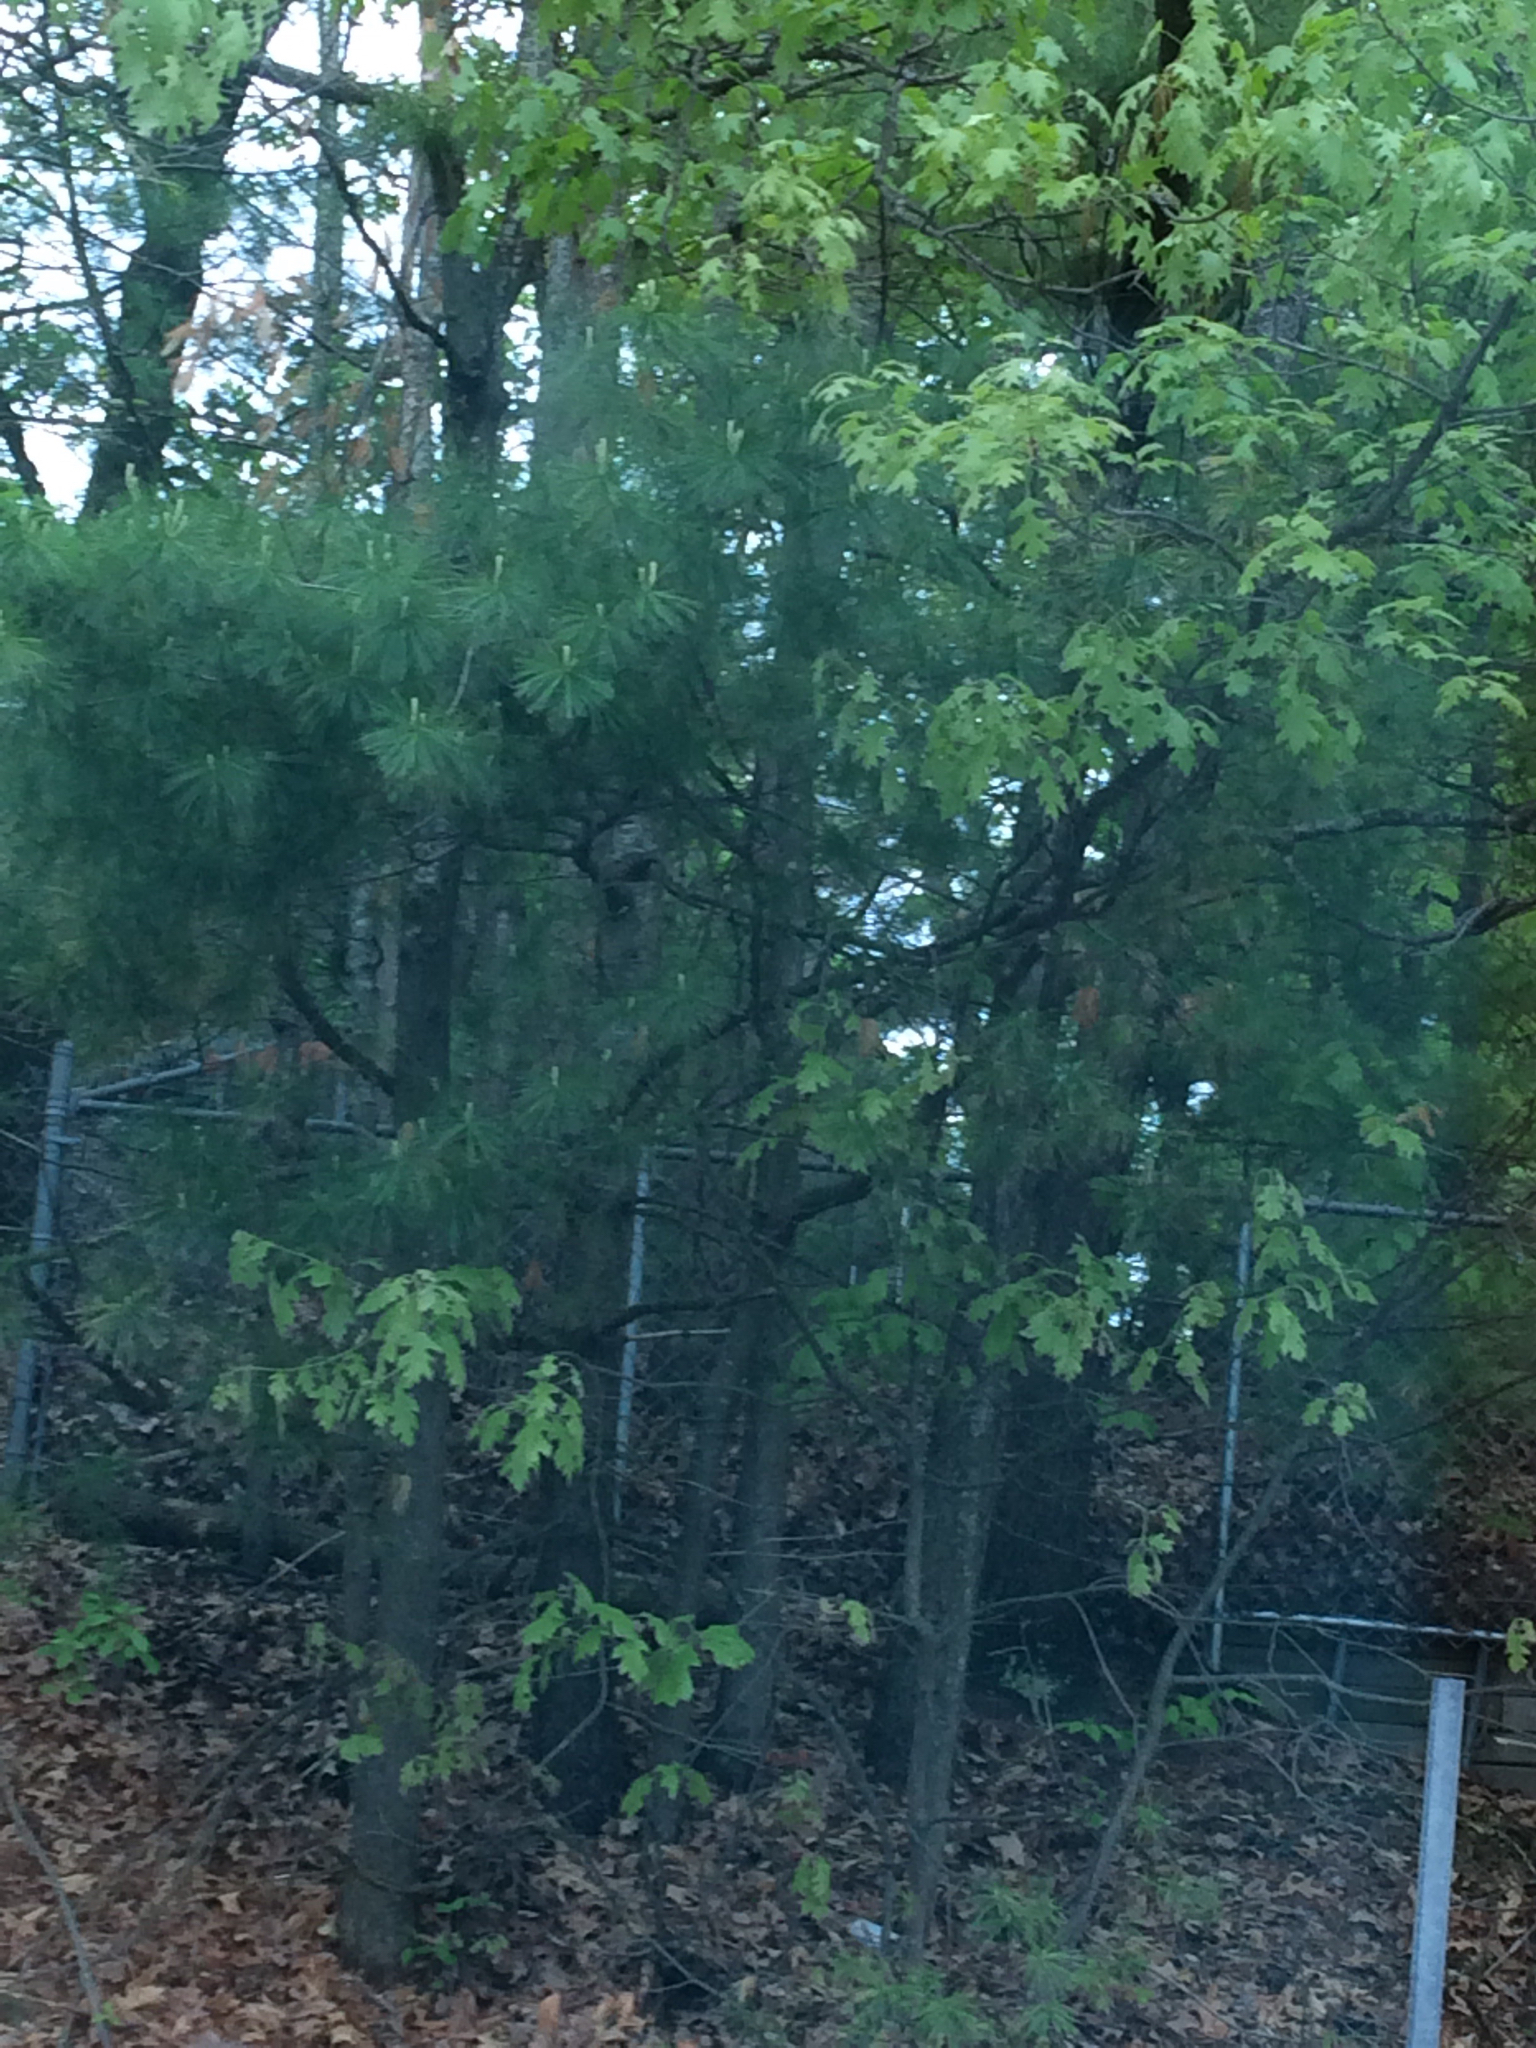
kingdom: Plantae
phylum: Tracheophyta
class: Pinopsida
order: Pinales
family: Pinaceae
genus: Pinus
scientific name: Pinus strobus
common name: Weymouth pine
